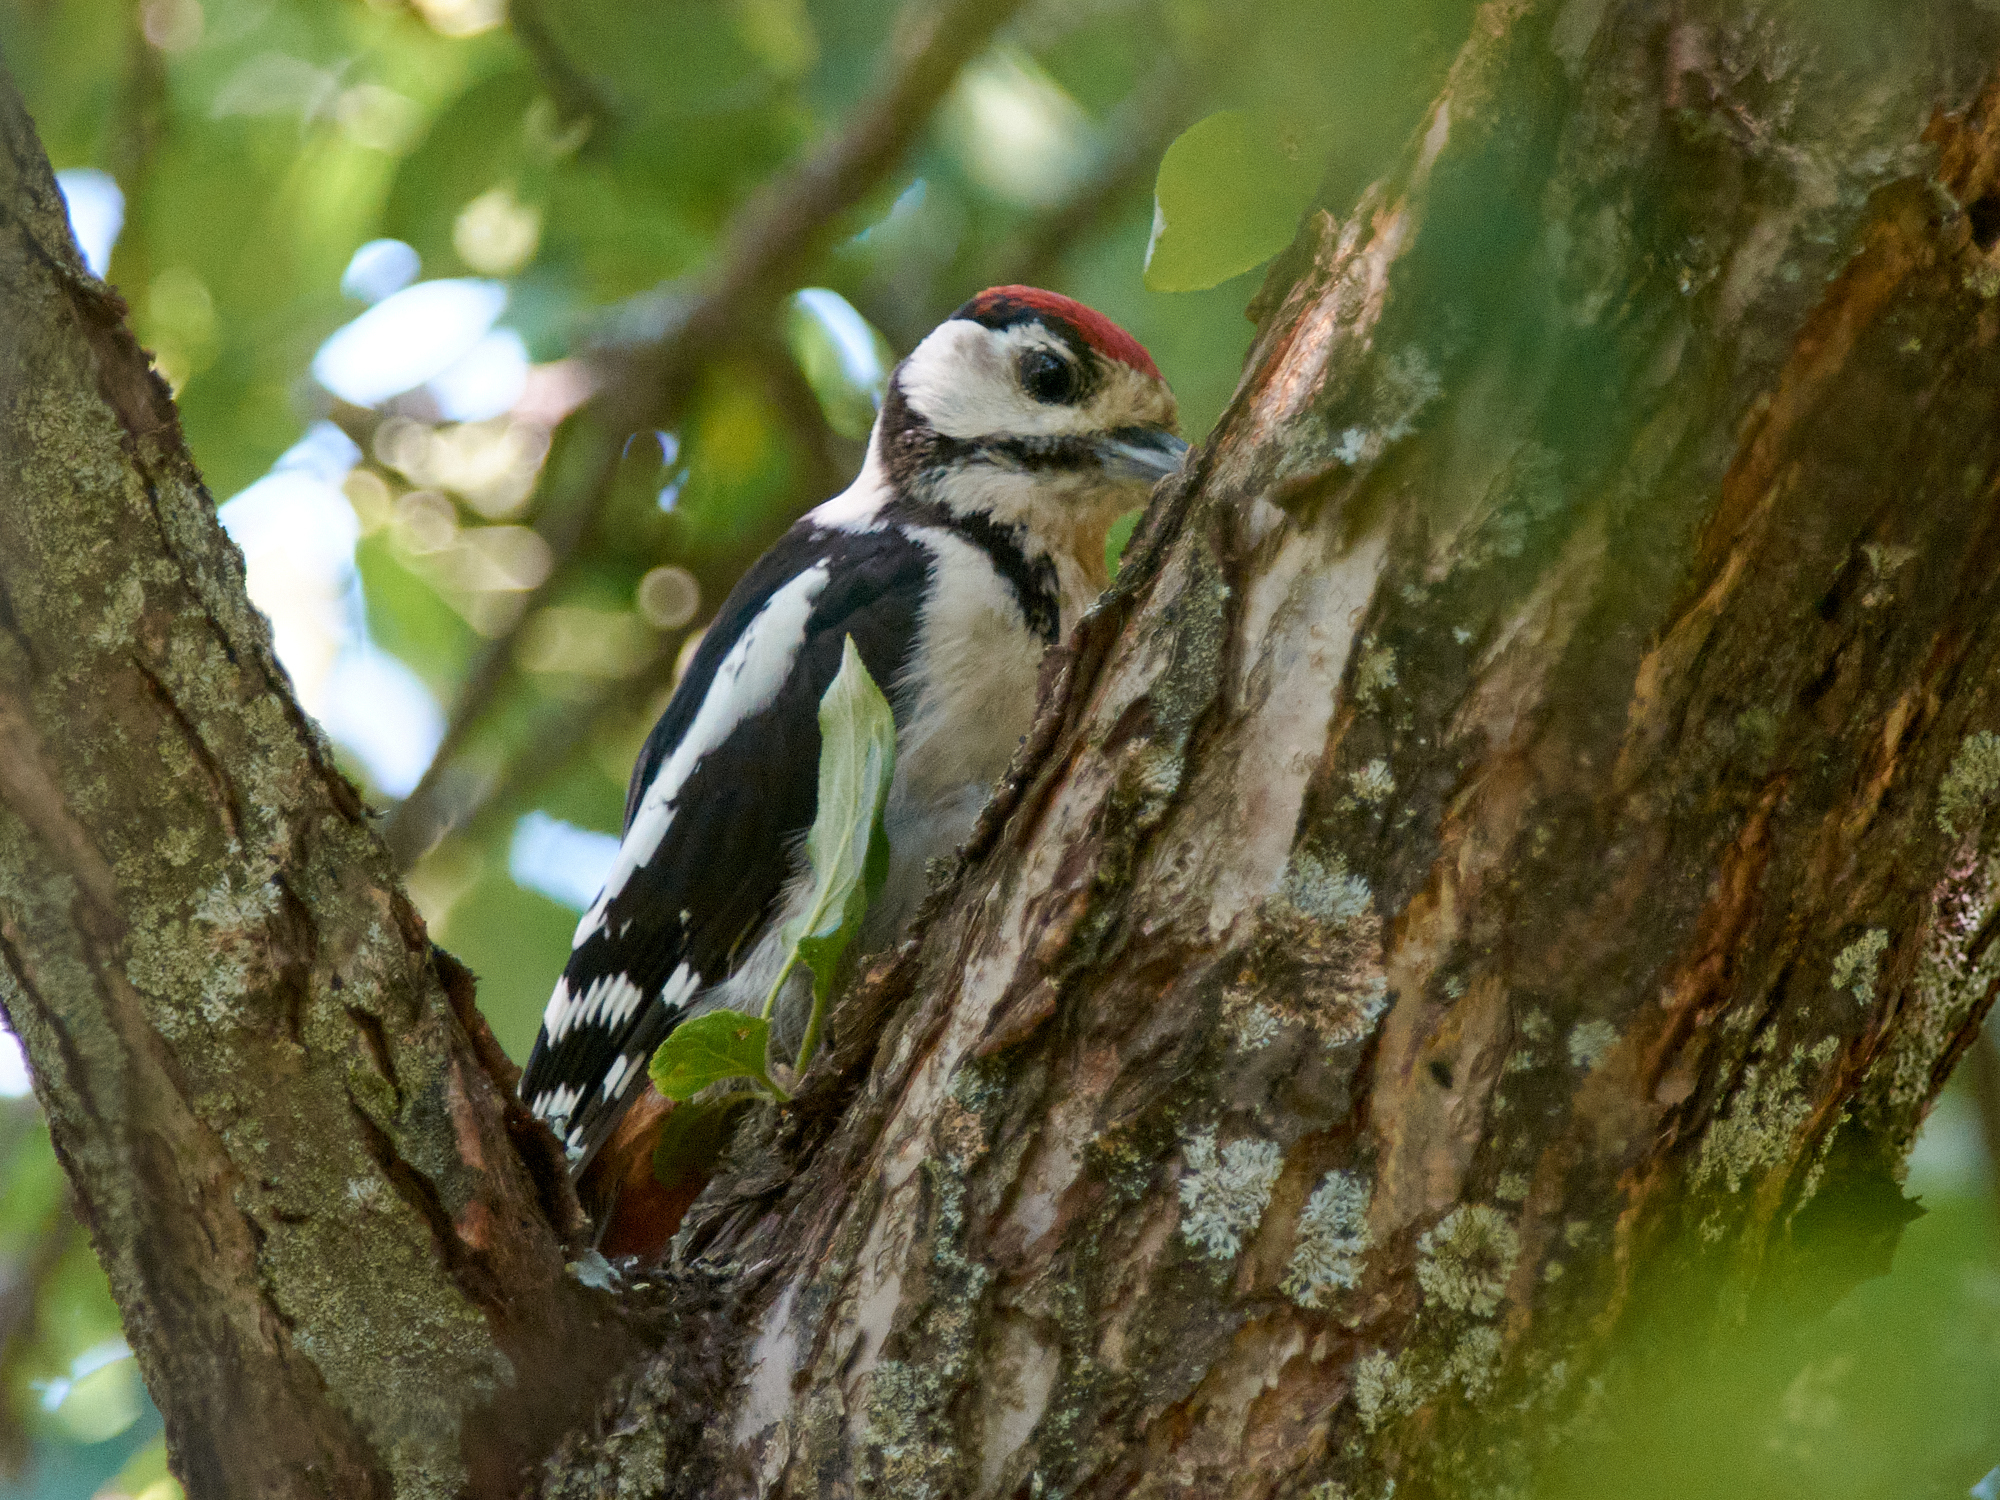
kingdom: Animalia
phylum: Chordata
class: Aves
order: Piciformes
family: Picidae
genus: Dendrocopos
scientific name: Dendrocopos major
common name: Great spotted woodpecker
